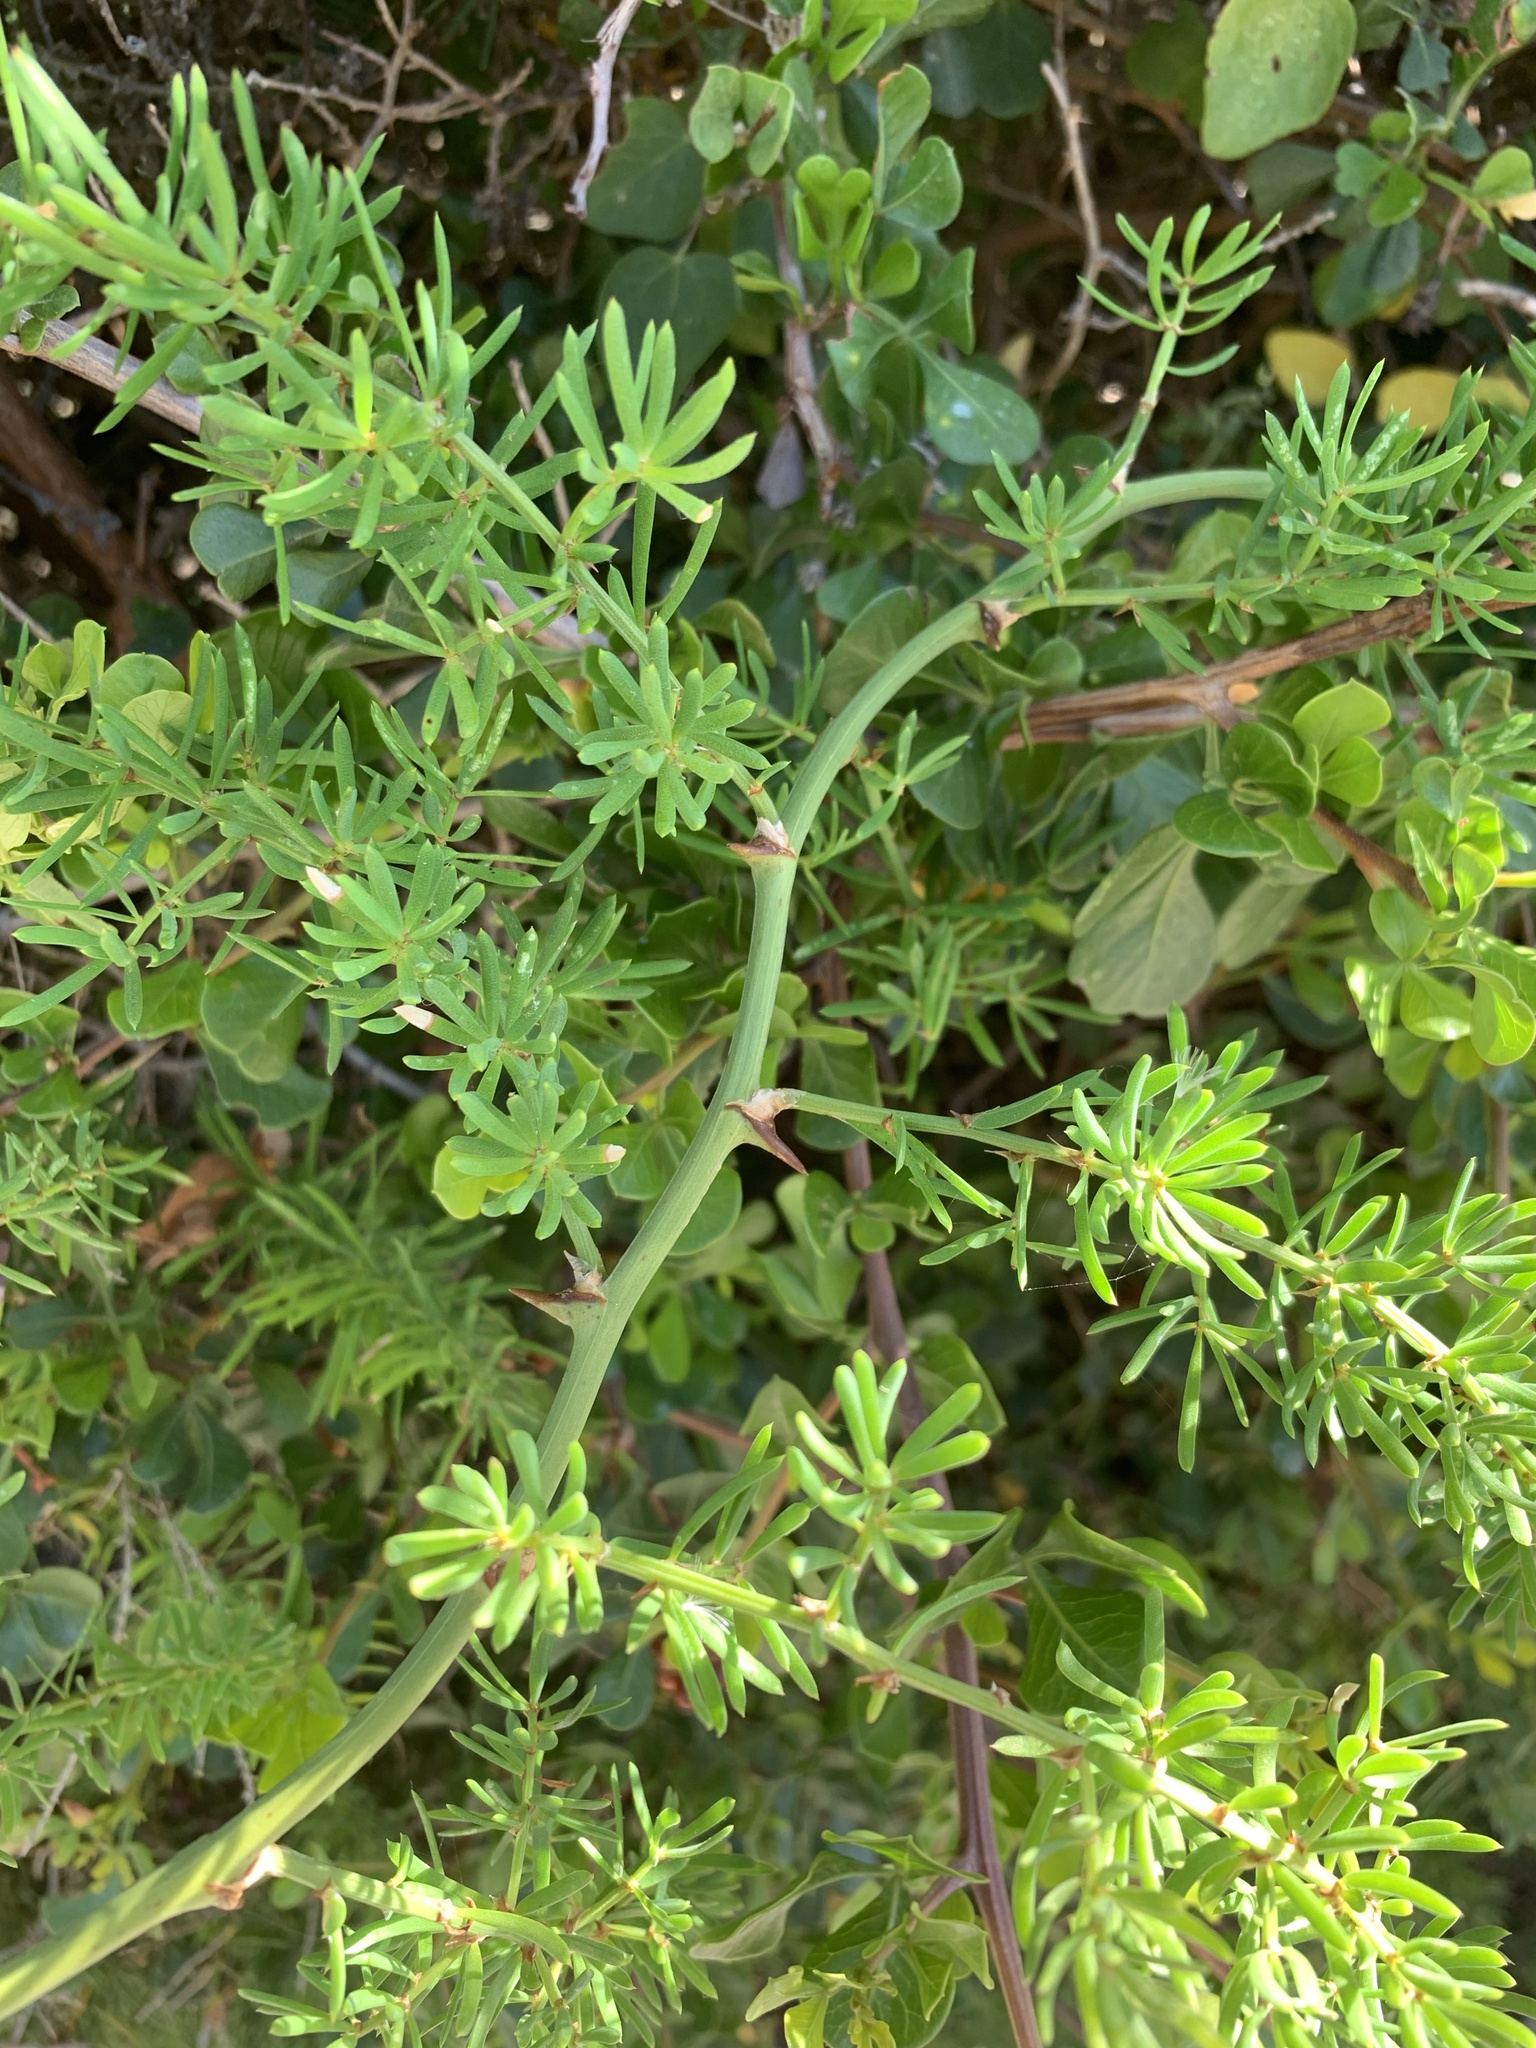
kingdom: Plantae
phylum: Tracheophyta
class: Liliopsida
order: Asparagales
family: Asparagaceae
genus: Asparagus
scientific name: Asparagus aethiopicus
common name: Sprenger's asparagus fern
